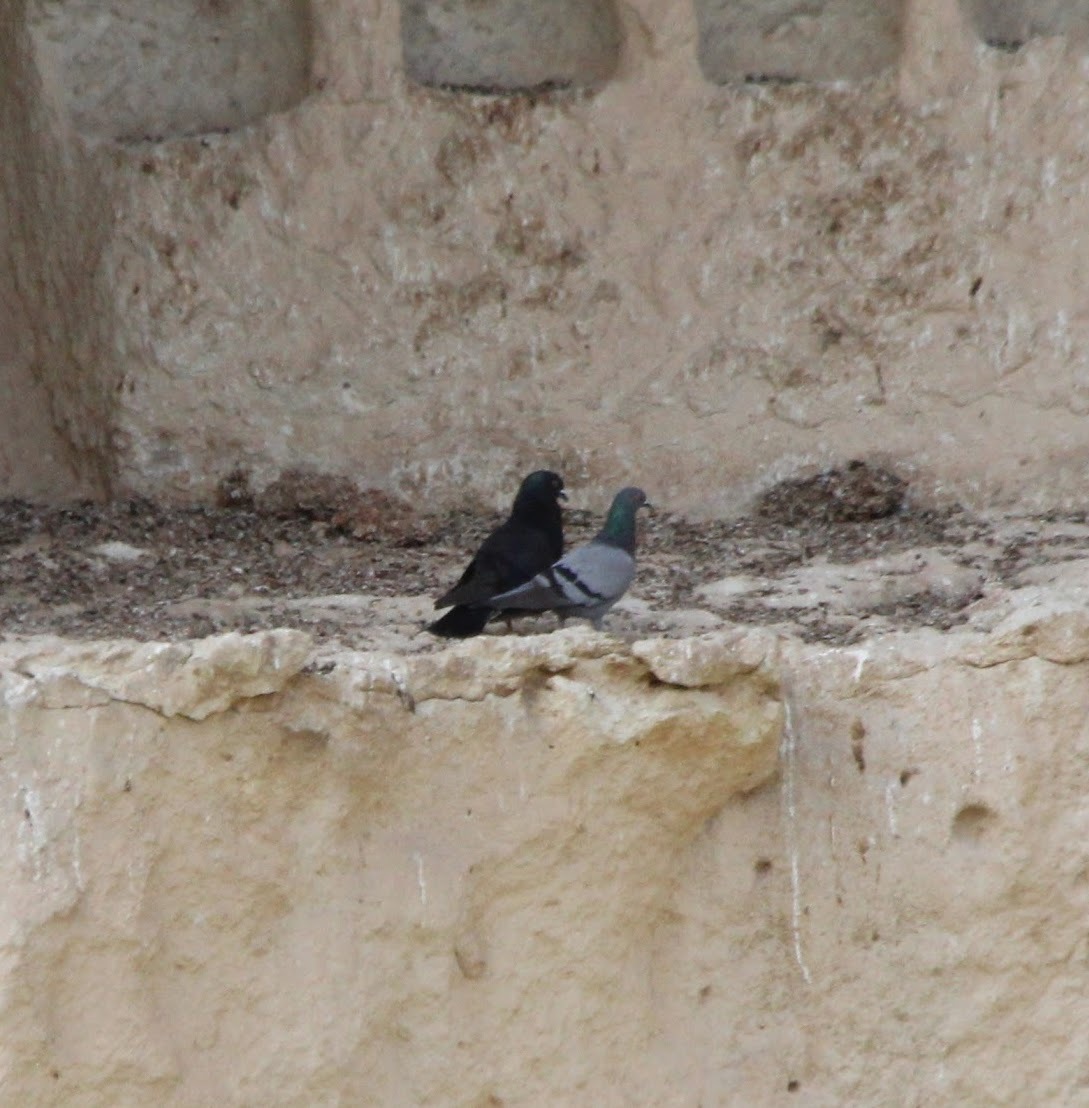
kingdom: Animalia
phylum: Chordata
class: Aves
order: Columbiformes
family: Columbidae
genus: Columba
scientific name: Columba livia
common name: Rock pigeon
